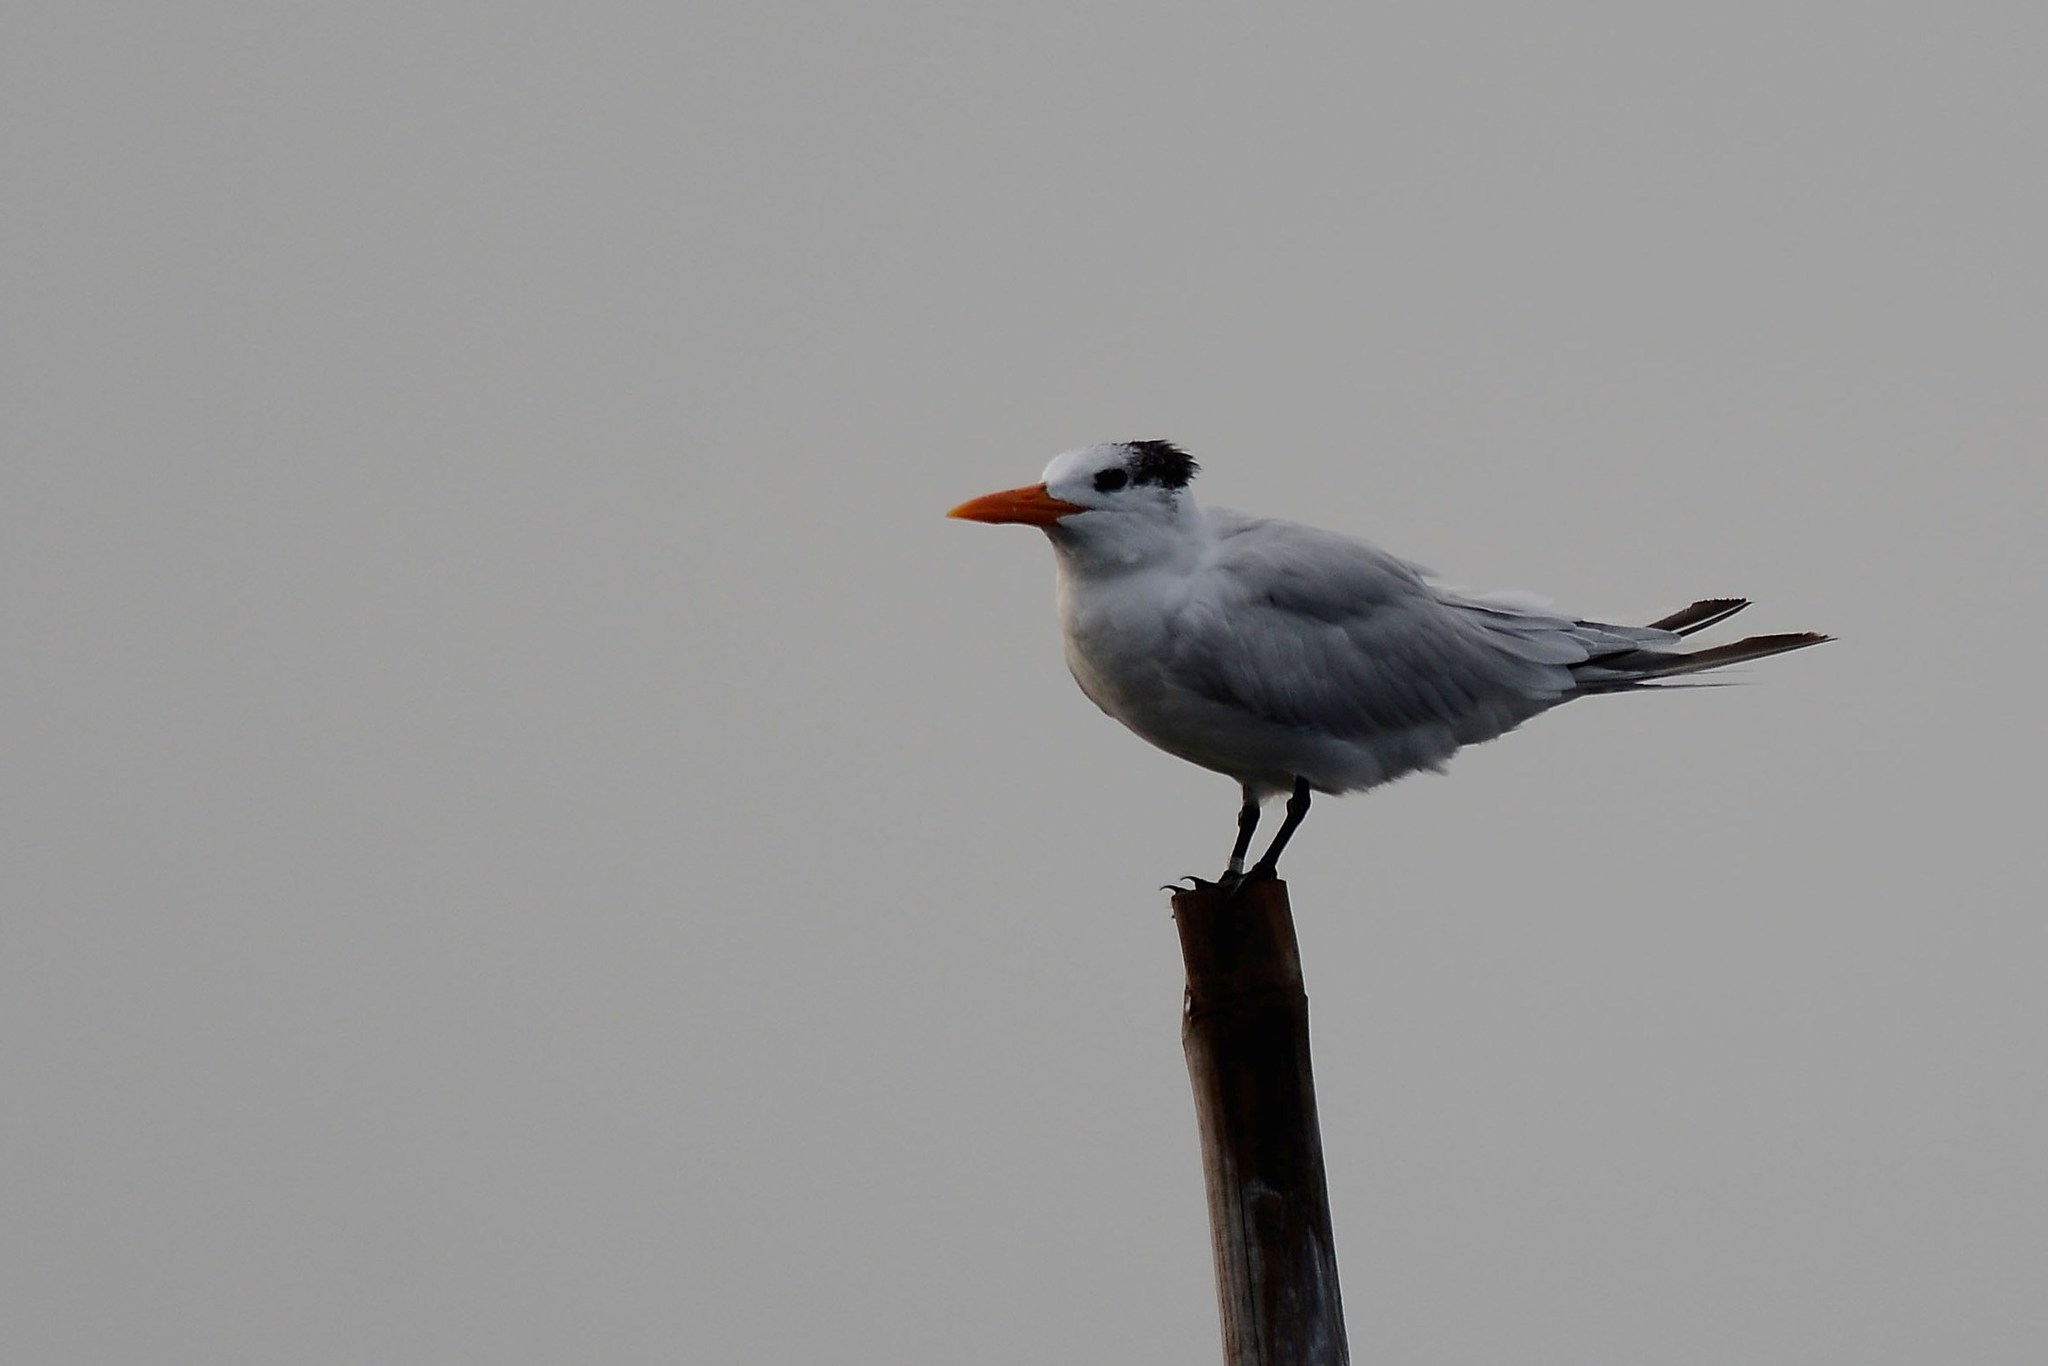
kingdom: Animalia
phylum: Chordata
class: Aves
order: Charadriiformes
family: Laridae
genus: Thalasseus
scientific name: Thalasseus maximus
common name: Royal tern
